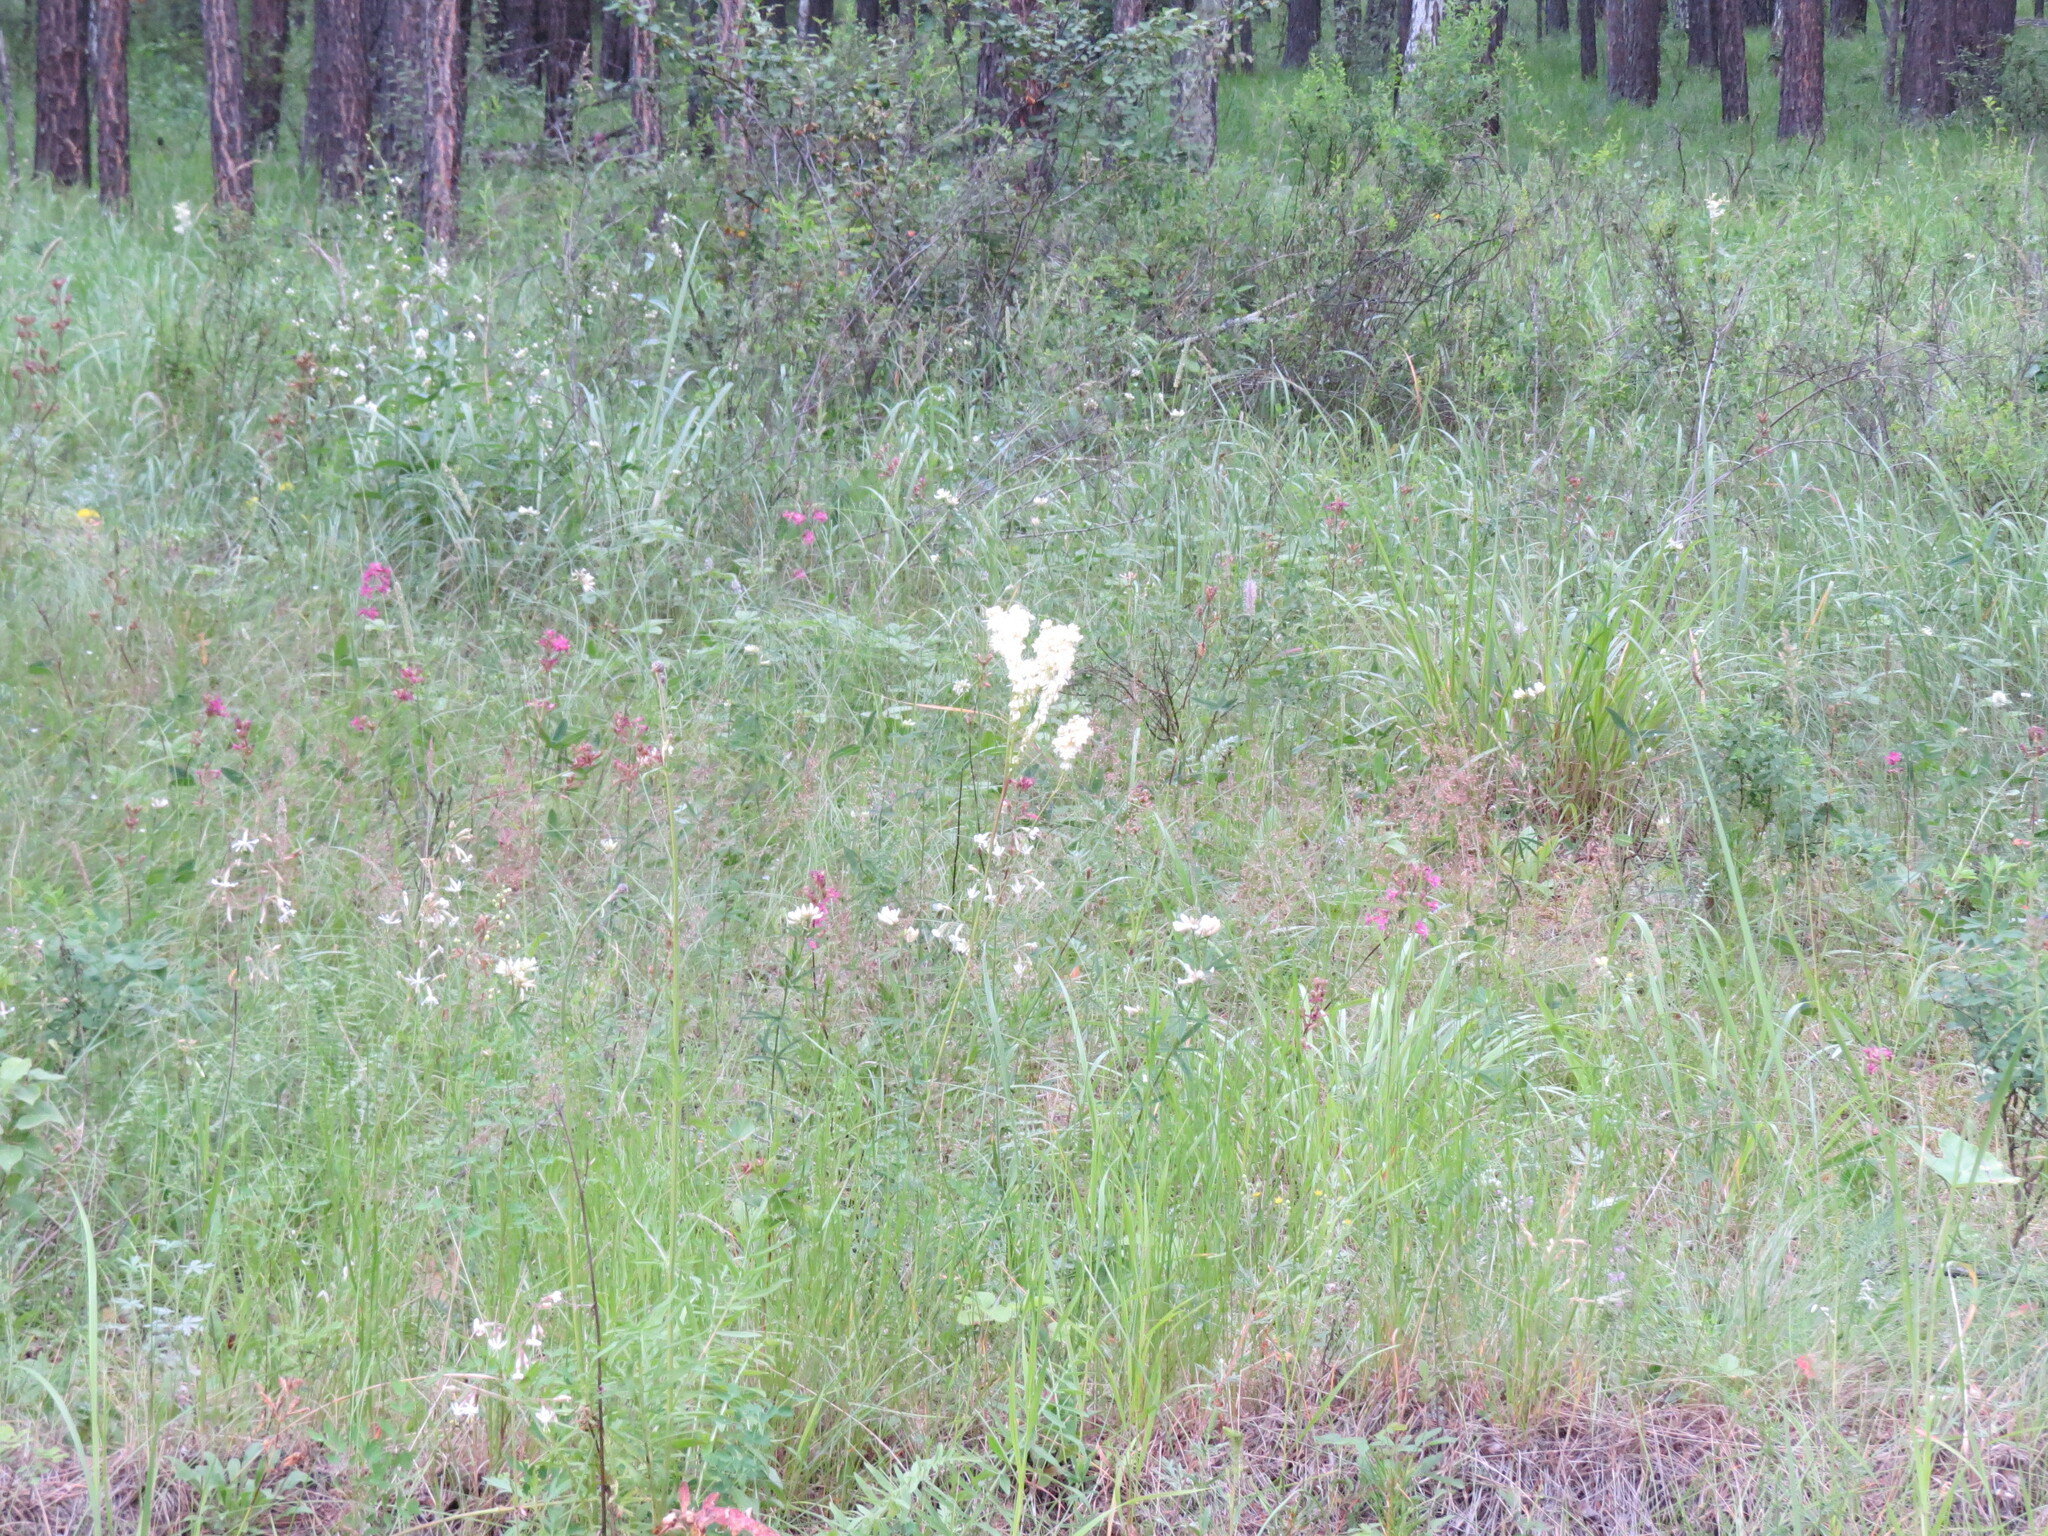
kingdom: Plantae
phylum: Tracheophyta
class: Magnoliopsida
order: Rosales
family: Rosaceae
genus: Filipendula
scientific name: Filipendula vulgaris
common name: Dropwort
